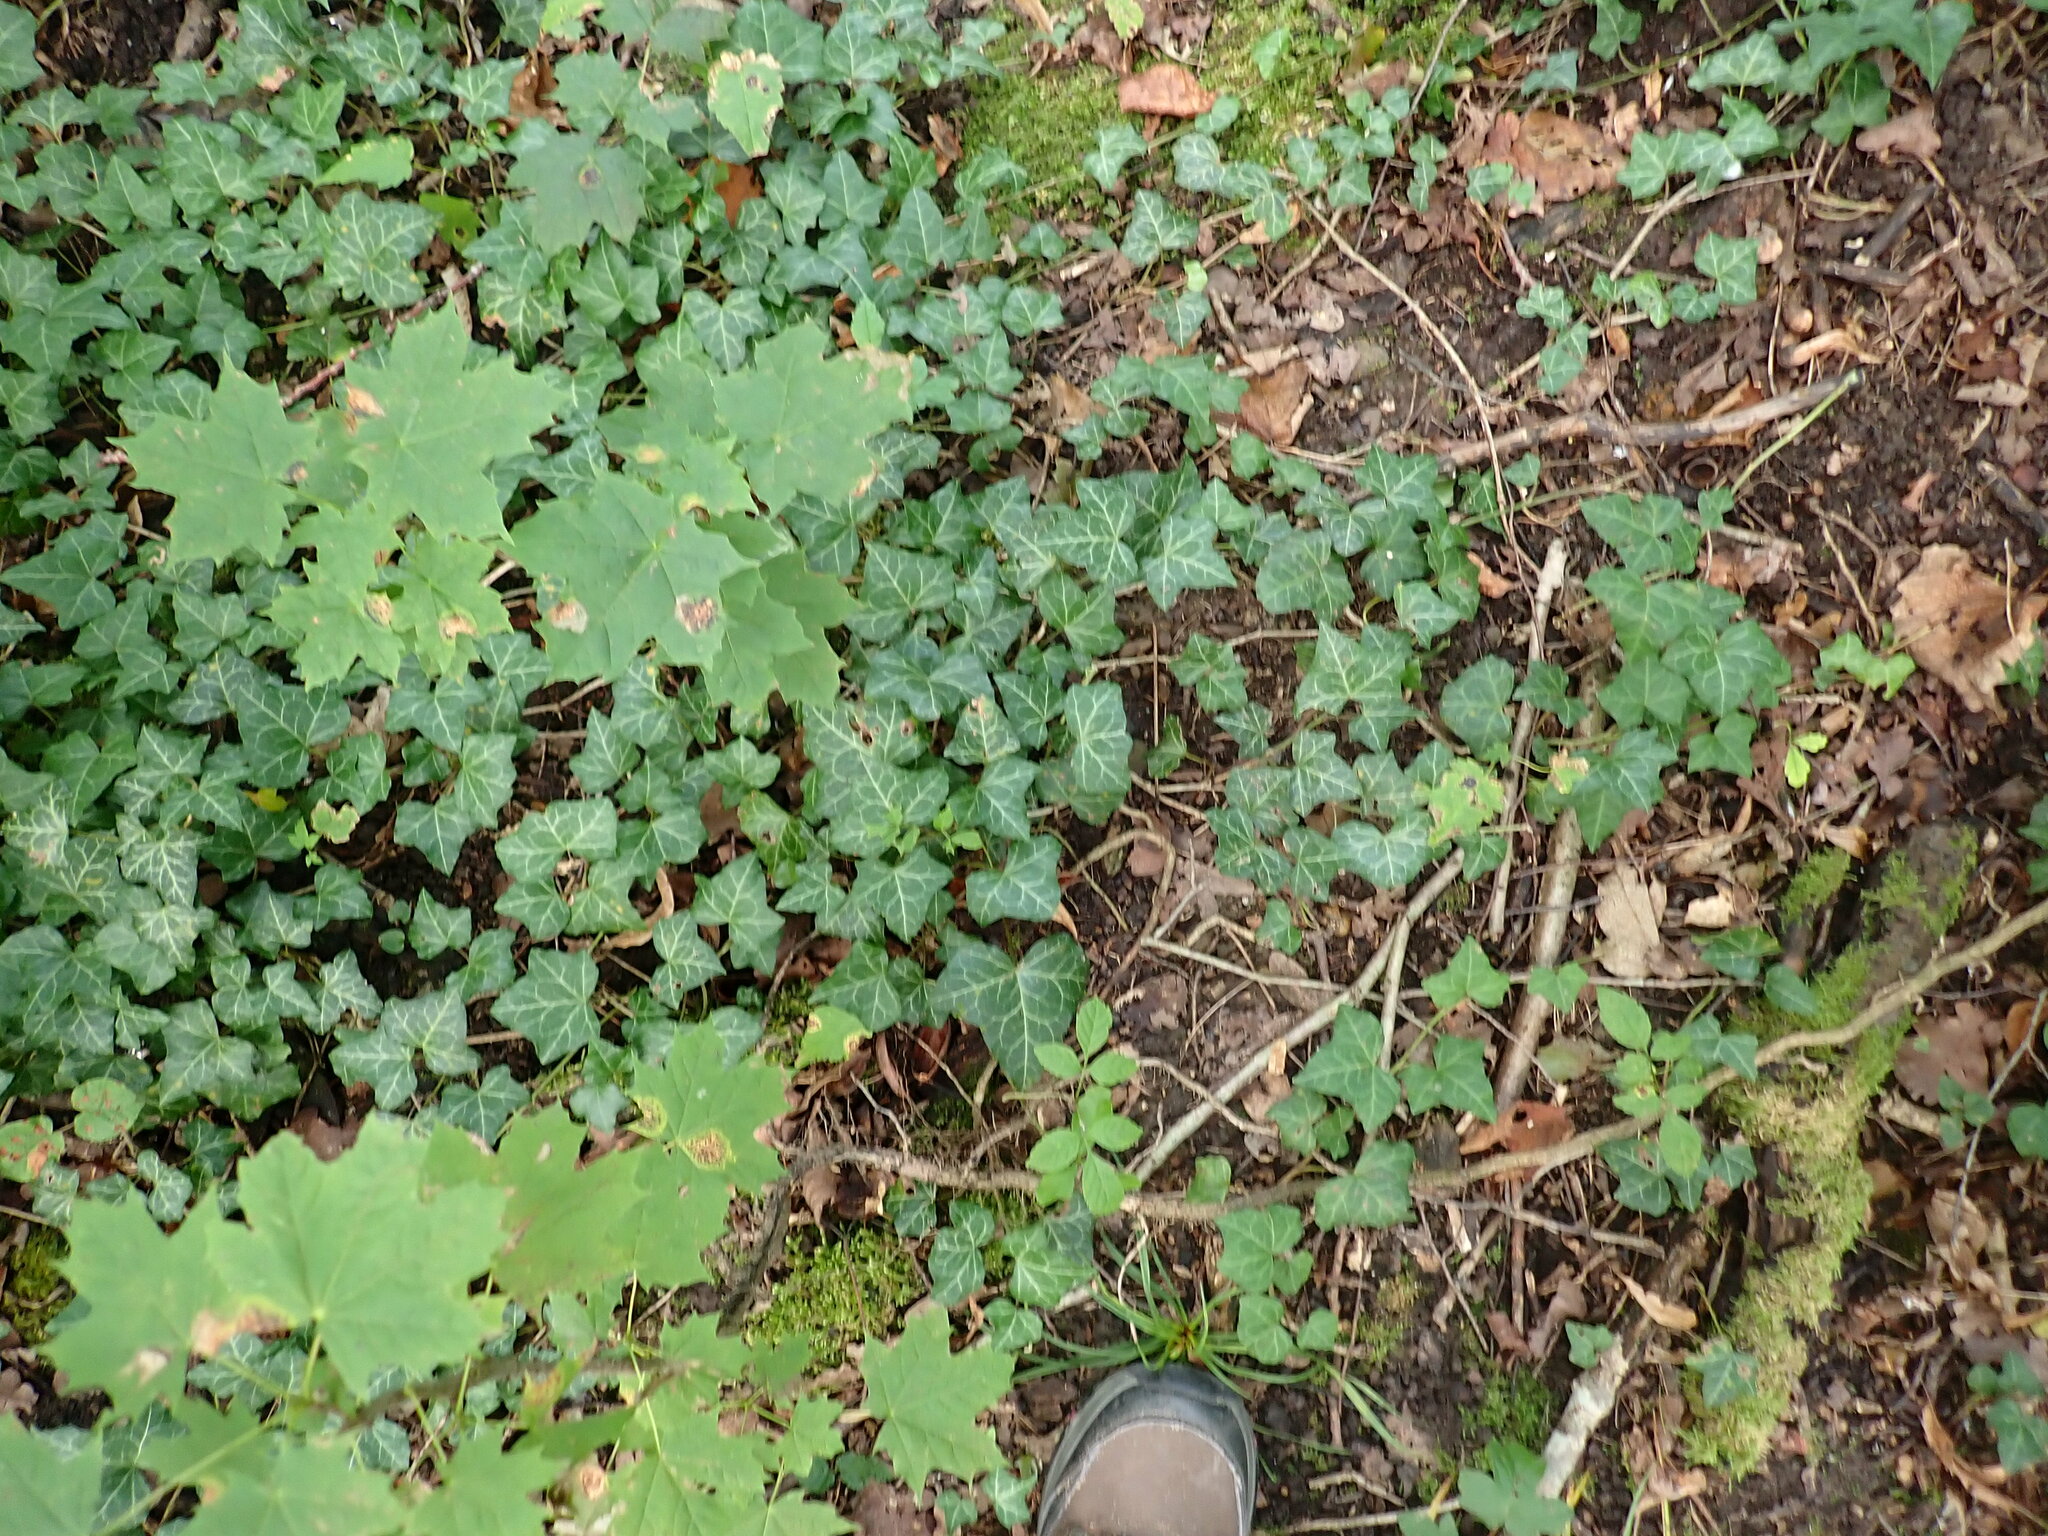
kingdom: Plantae
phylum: Tracheophyta
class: Magnoliopsida
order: Apiales
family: Araliaceae
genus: Hedera
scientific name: Hedera helix
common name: Ivy
